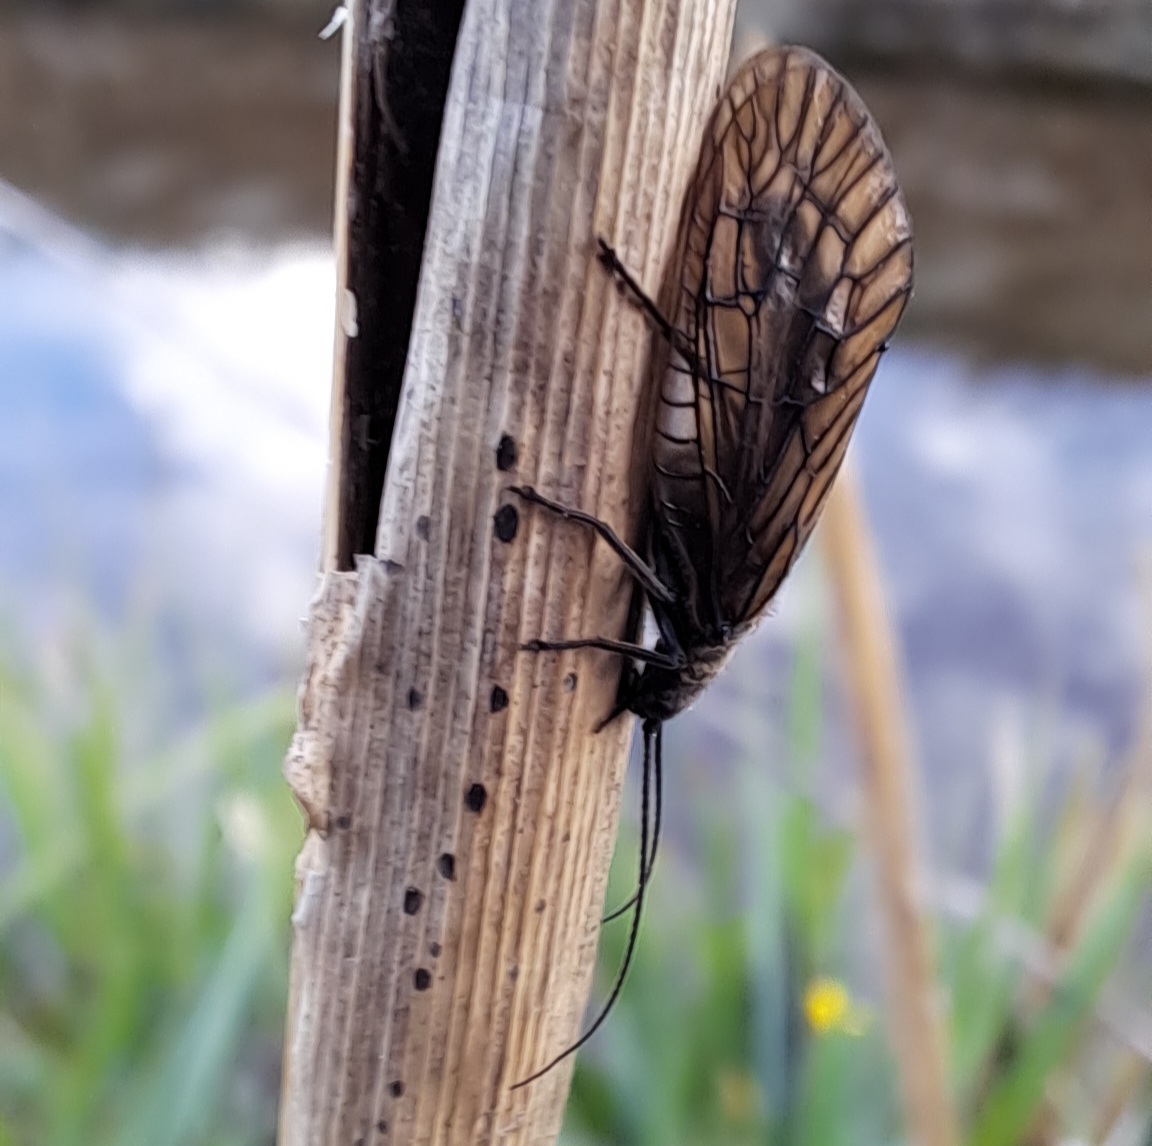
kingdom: Animalia
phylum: Arthropoda
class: Insecta
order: Megaloptera
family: Sialidae
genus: Sialis
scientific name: Sialis
